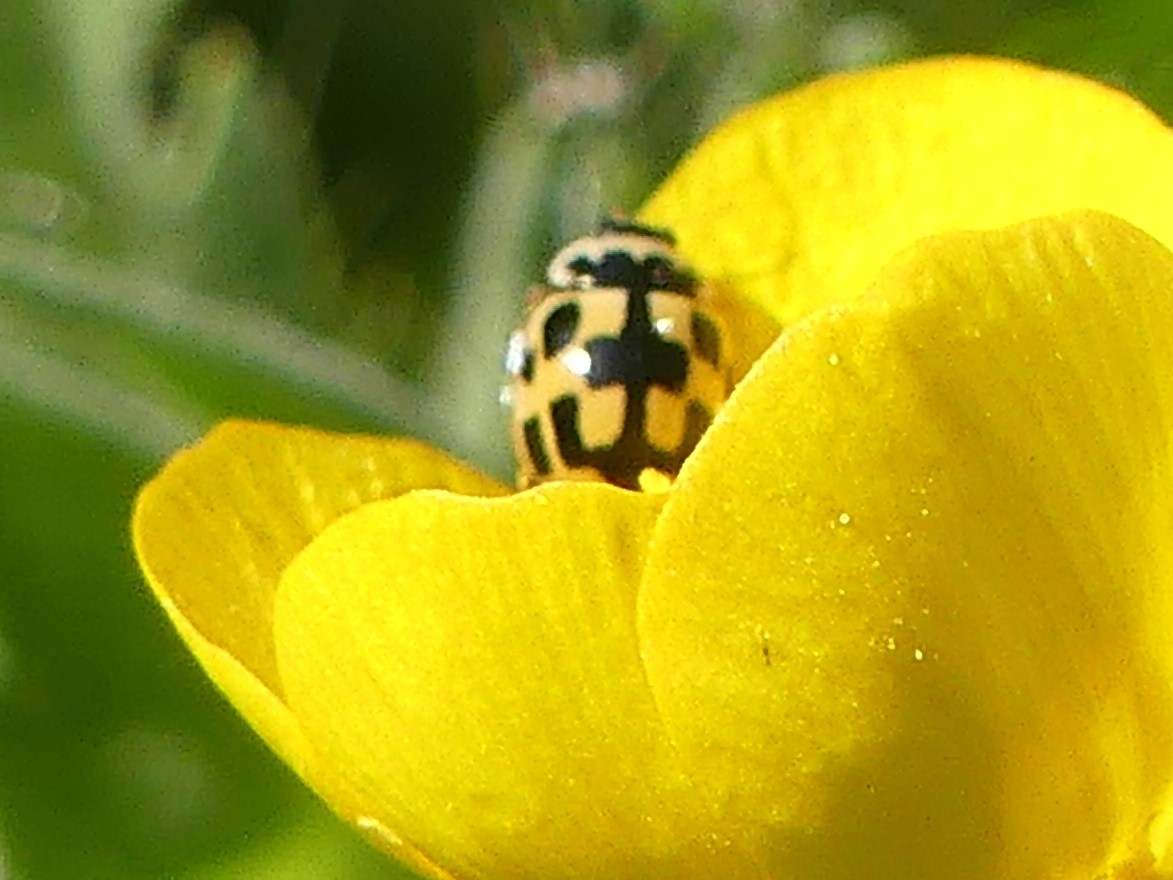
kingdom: Animalia
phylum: Arthropoda
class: Insecta
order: Coleoptera
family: Coccinellidae
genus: Propylaea
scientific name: Propylaea quatuordecimpunctata
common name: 14-spotted ladybird beetle
